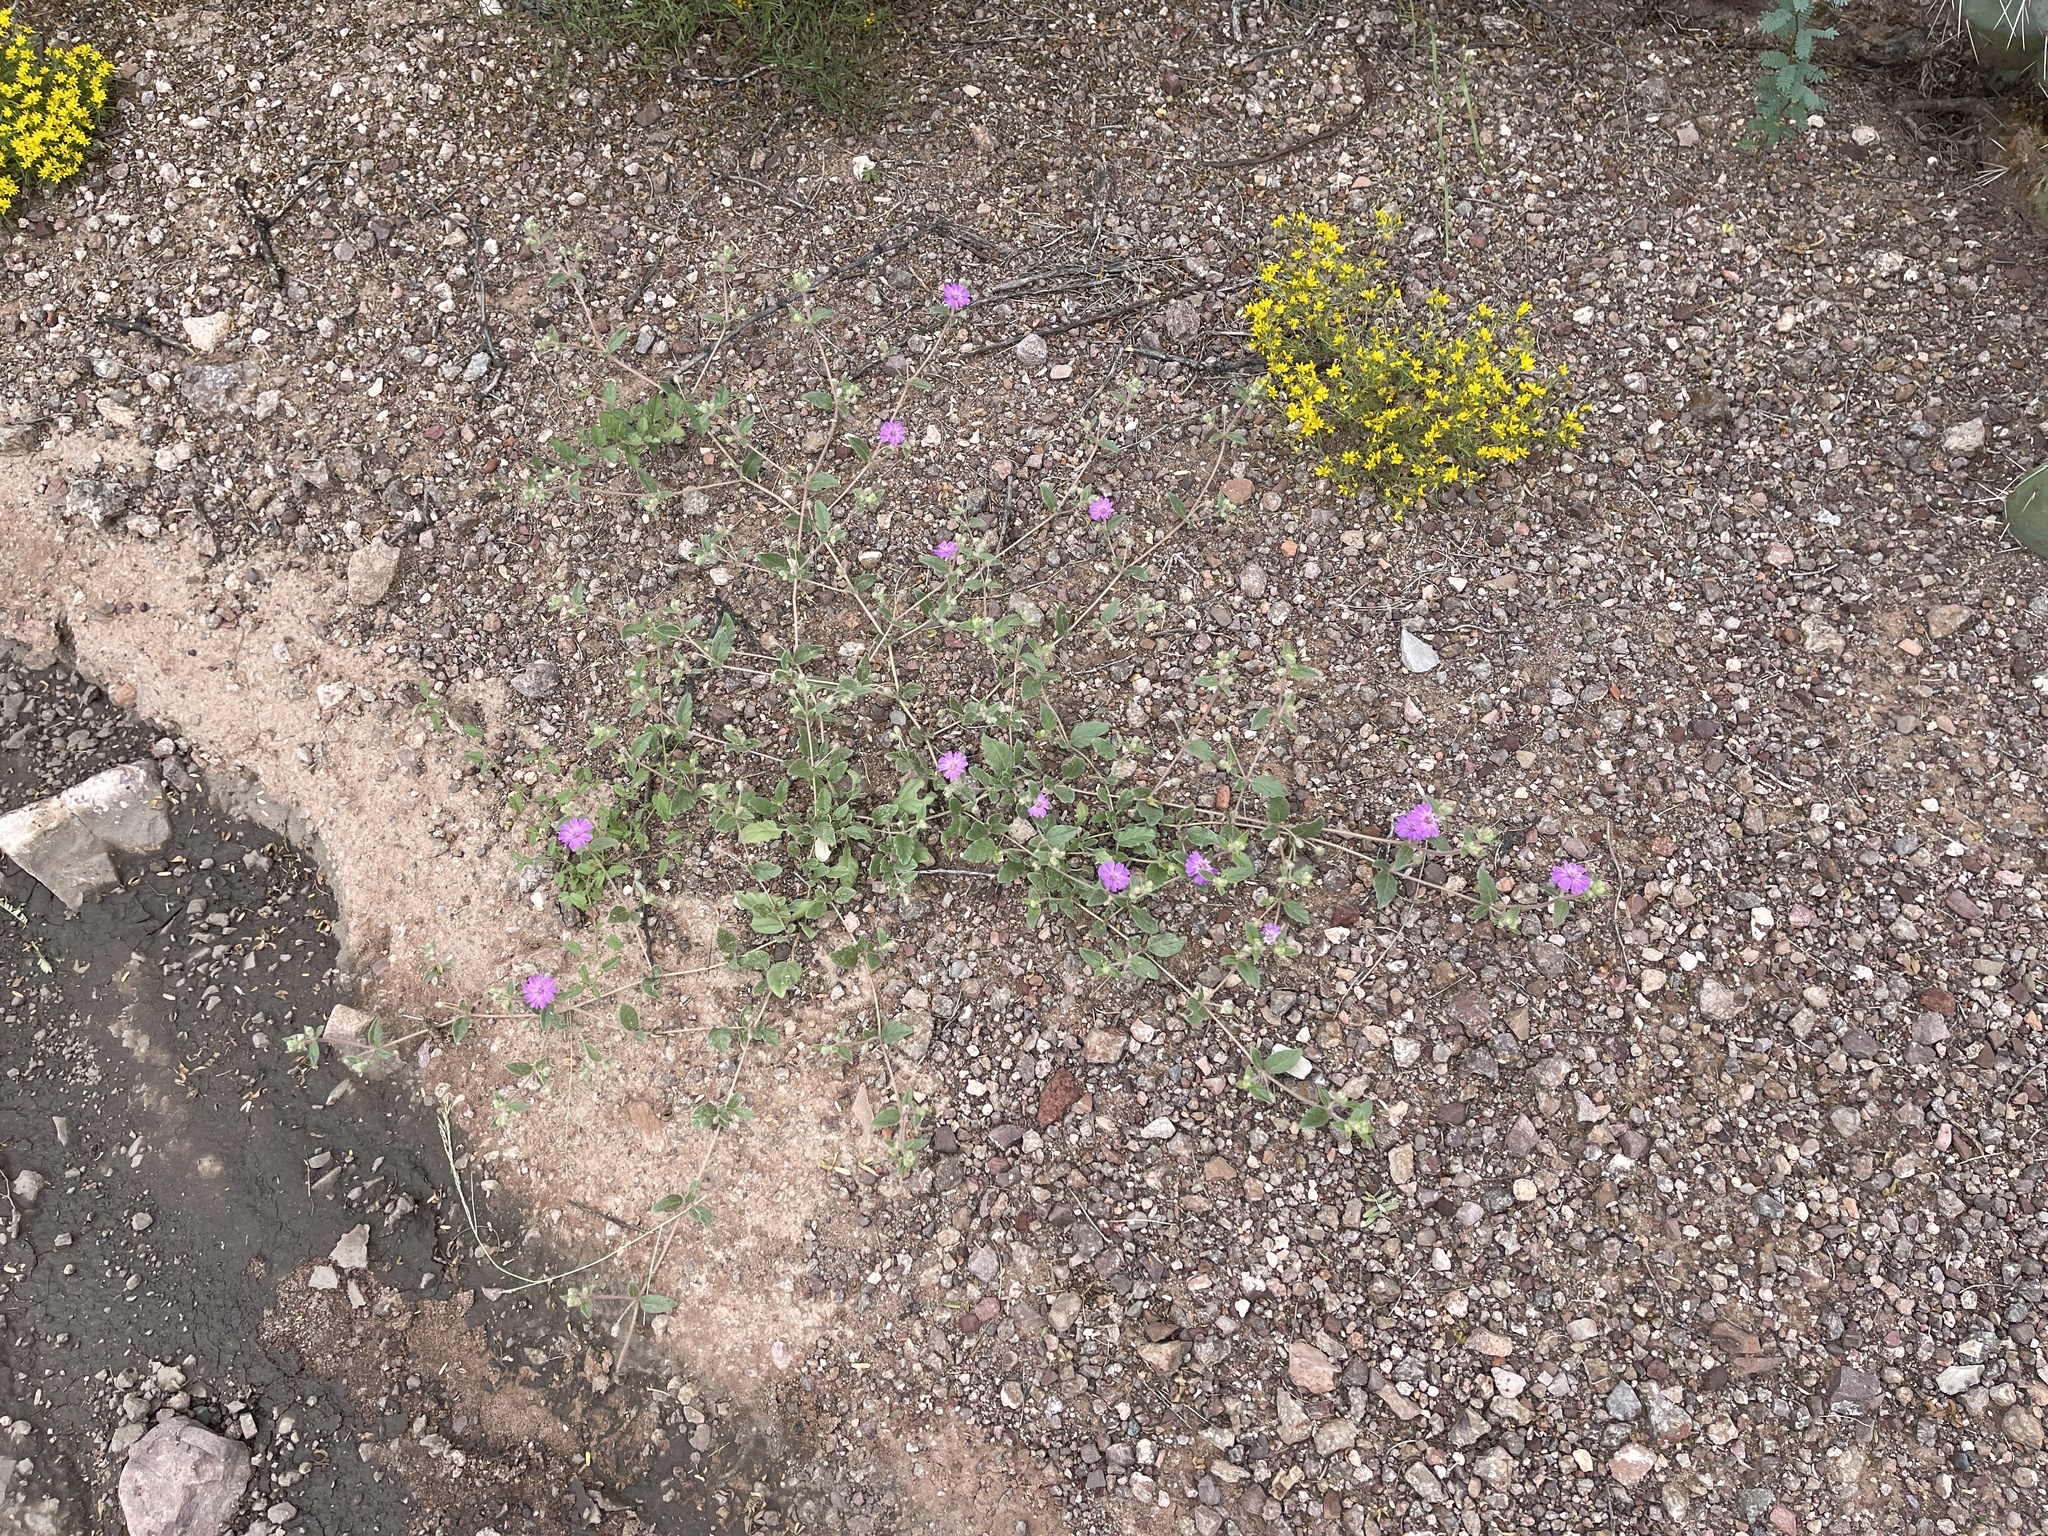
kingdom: Plantae
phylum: Tracheophyta
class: Magnoliopsida
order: Caryophyllales
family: Nyctaginaceae
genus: Allionia
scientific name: Allionia incarnata
